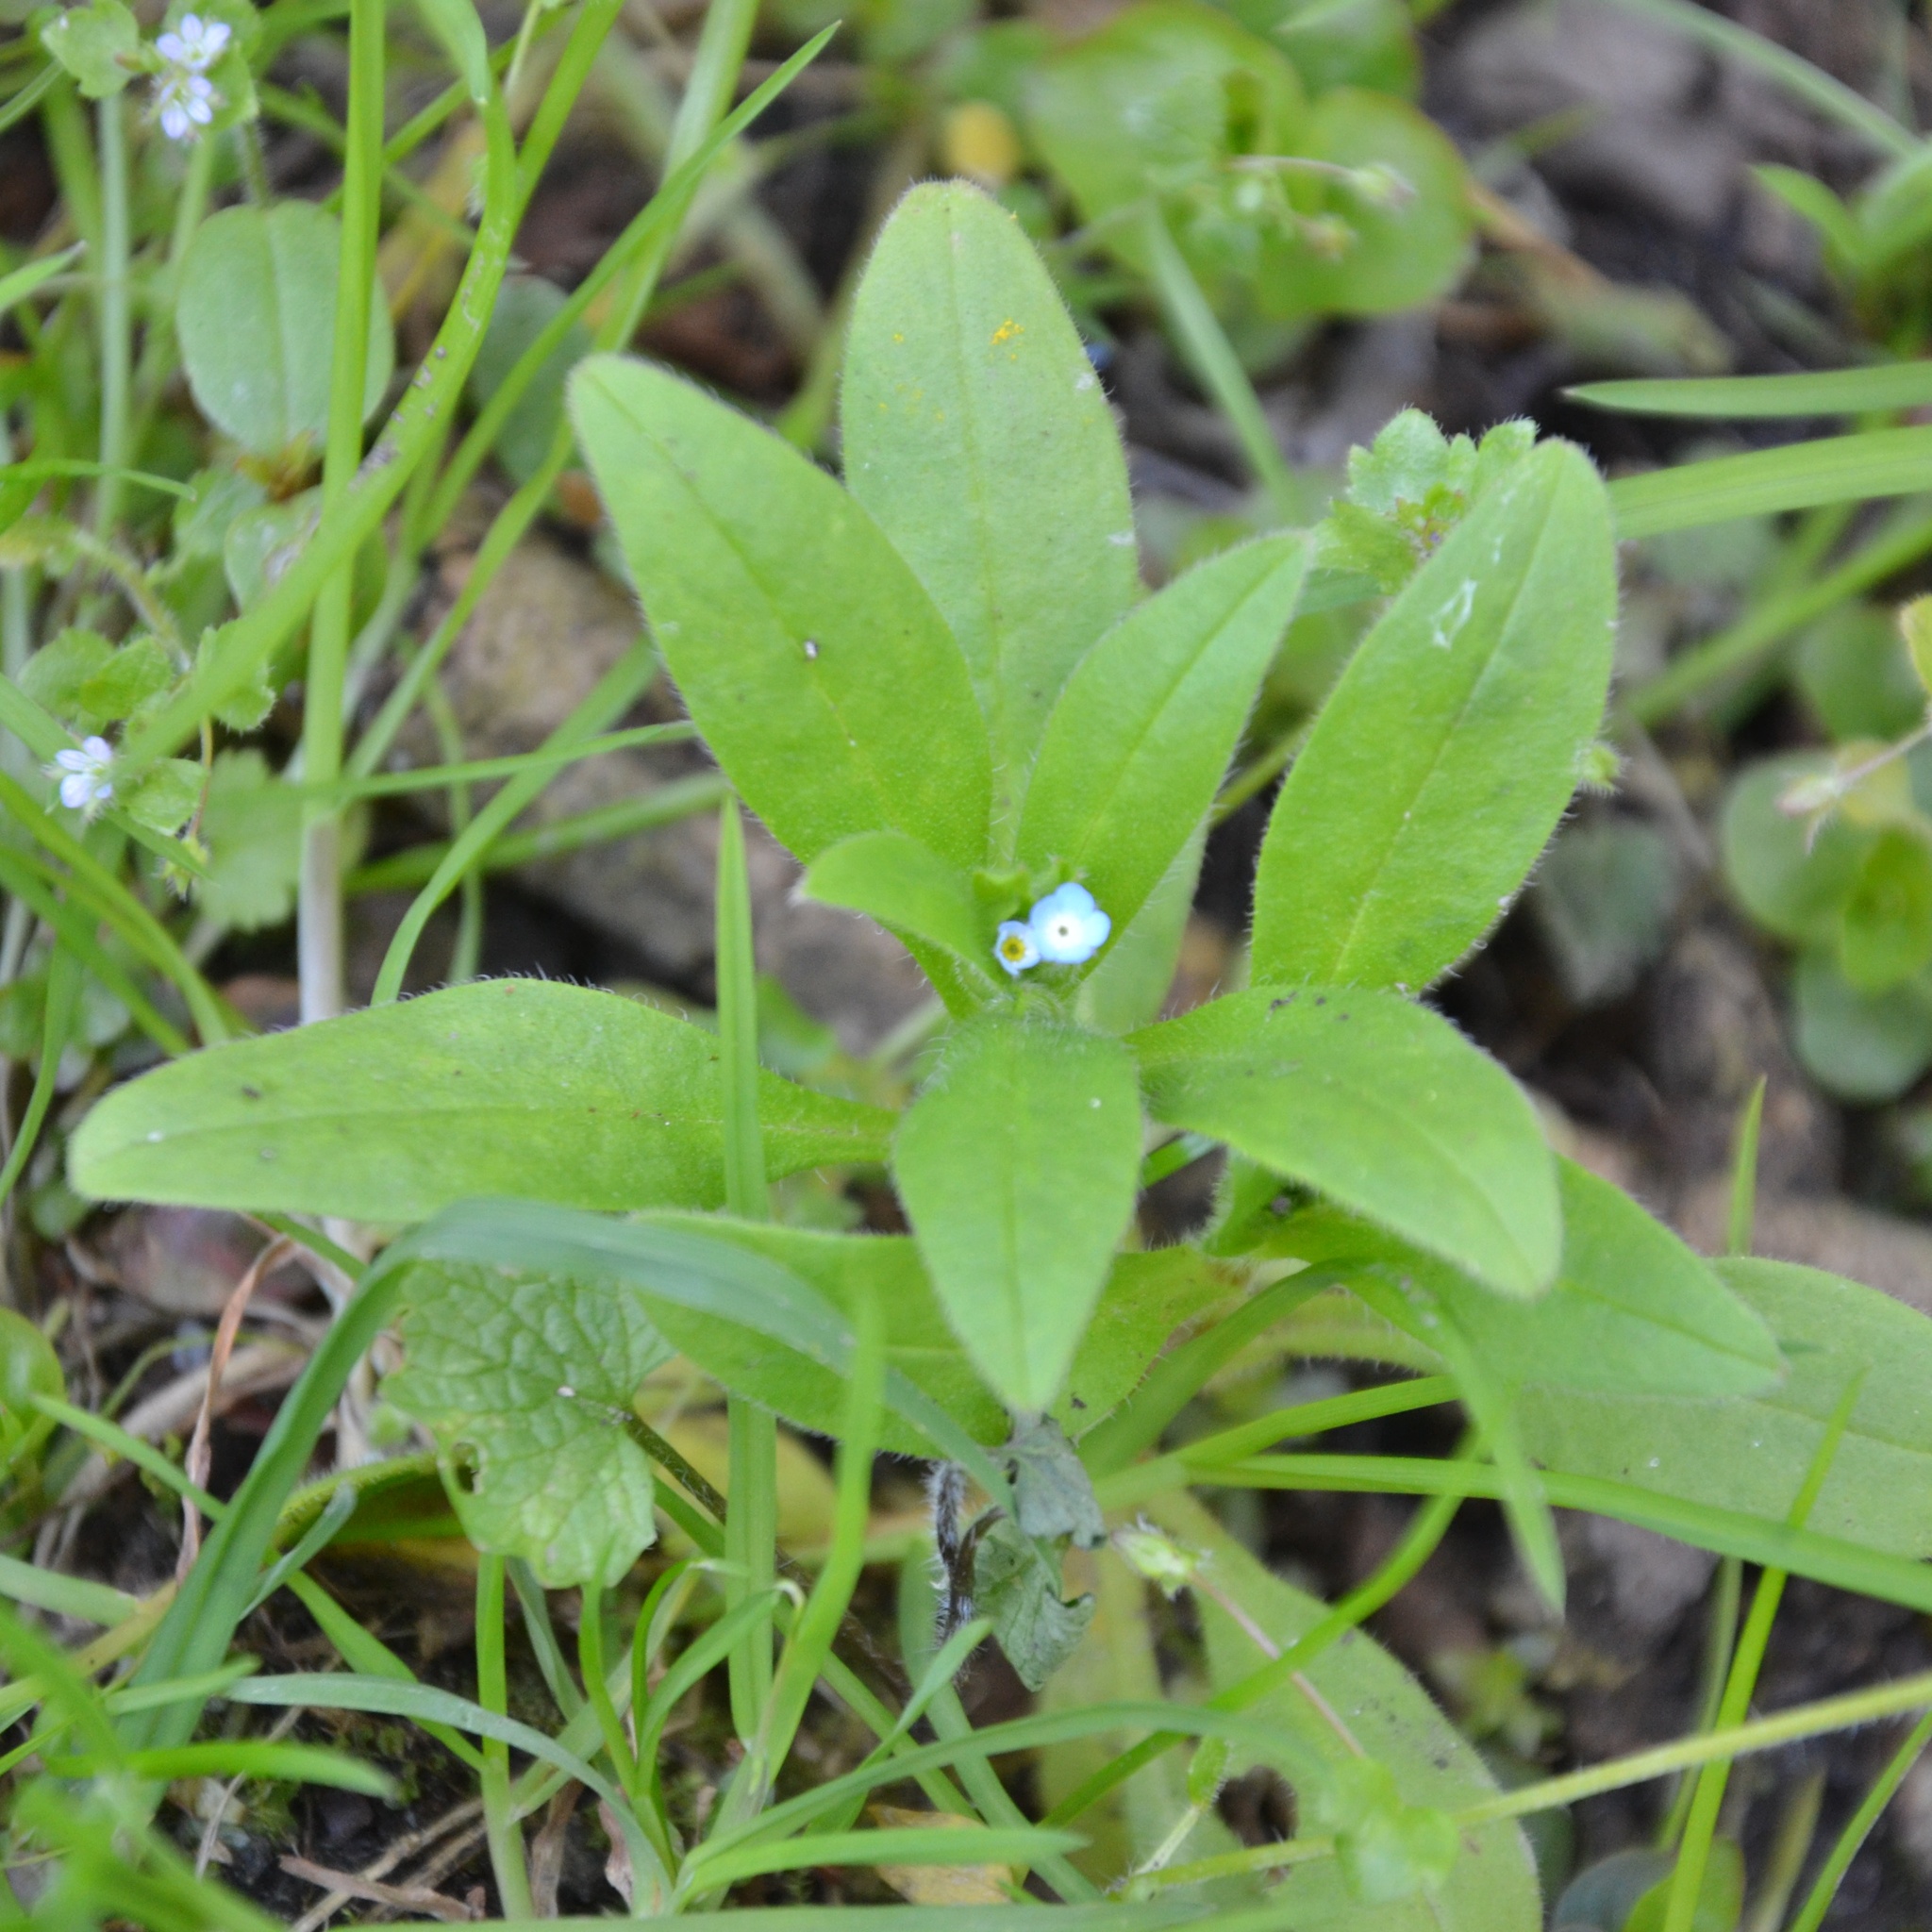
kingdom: Plantae
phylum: Tracheophyta
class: Magnoliopsida
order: Boraginales
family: Boraginaceae
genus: Myosotis
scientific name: Myosotis sparsiflora
